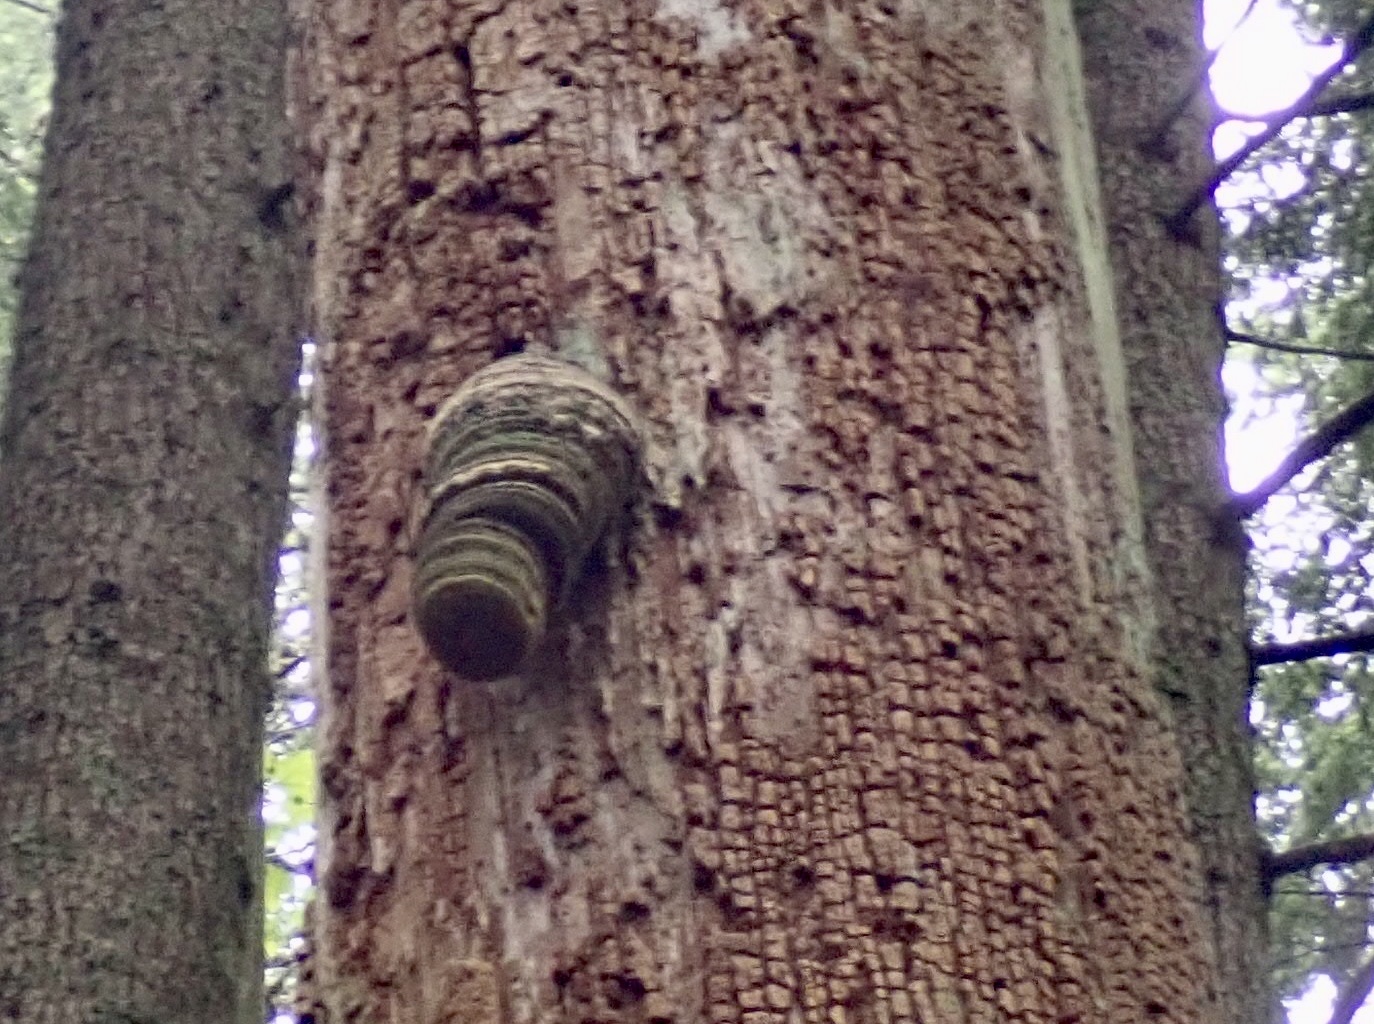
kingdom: Fungi
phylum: Basidiomycota
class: Agaricomycetes
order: Polyporales
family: Fomitopsidaceae
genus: Fomitopsis
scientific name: Fomitopsis officinalis
